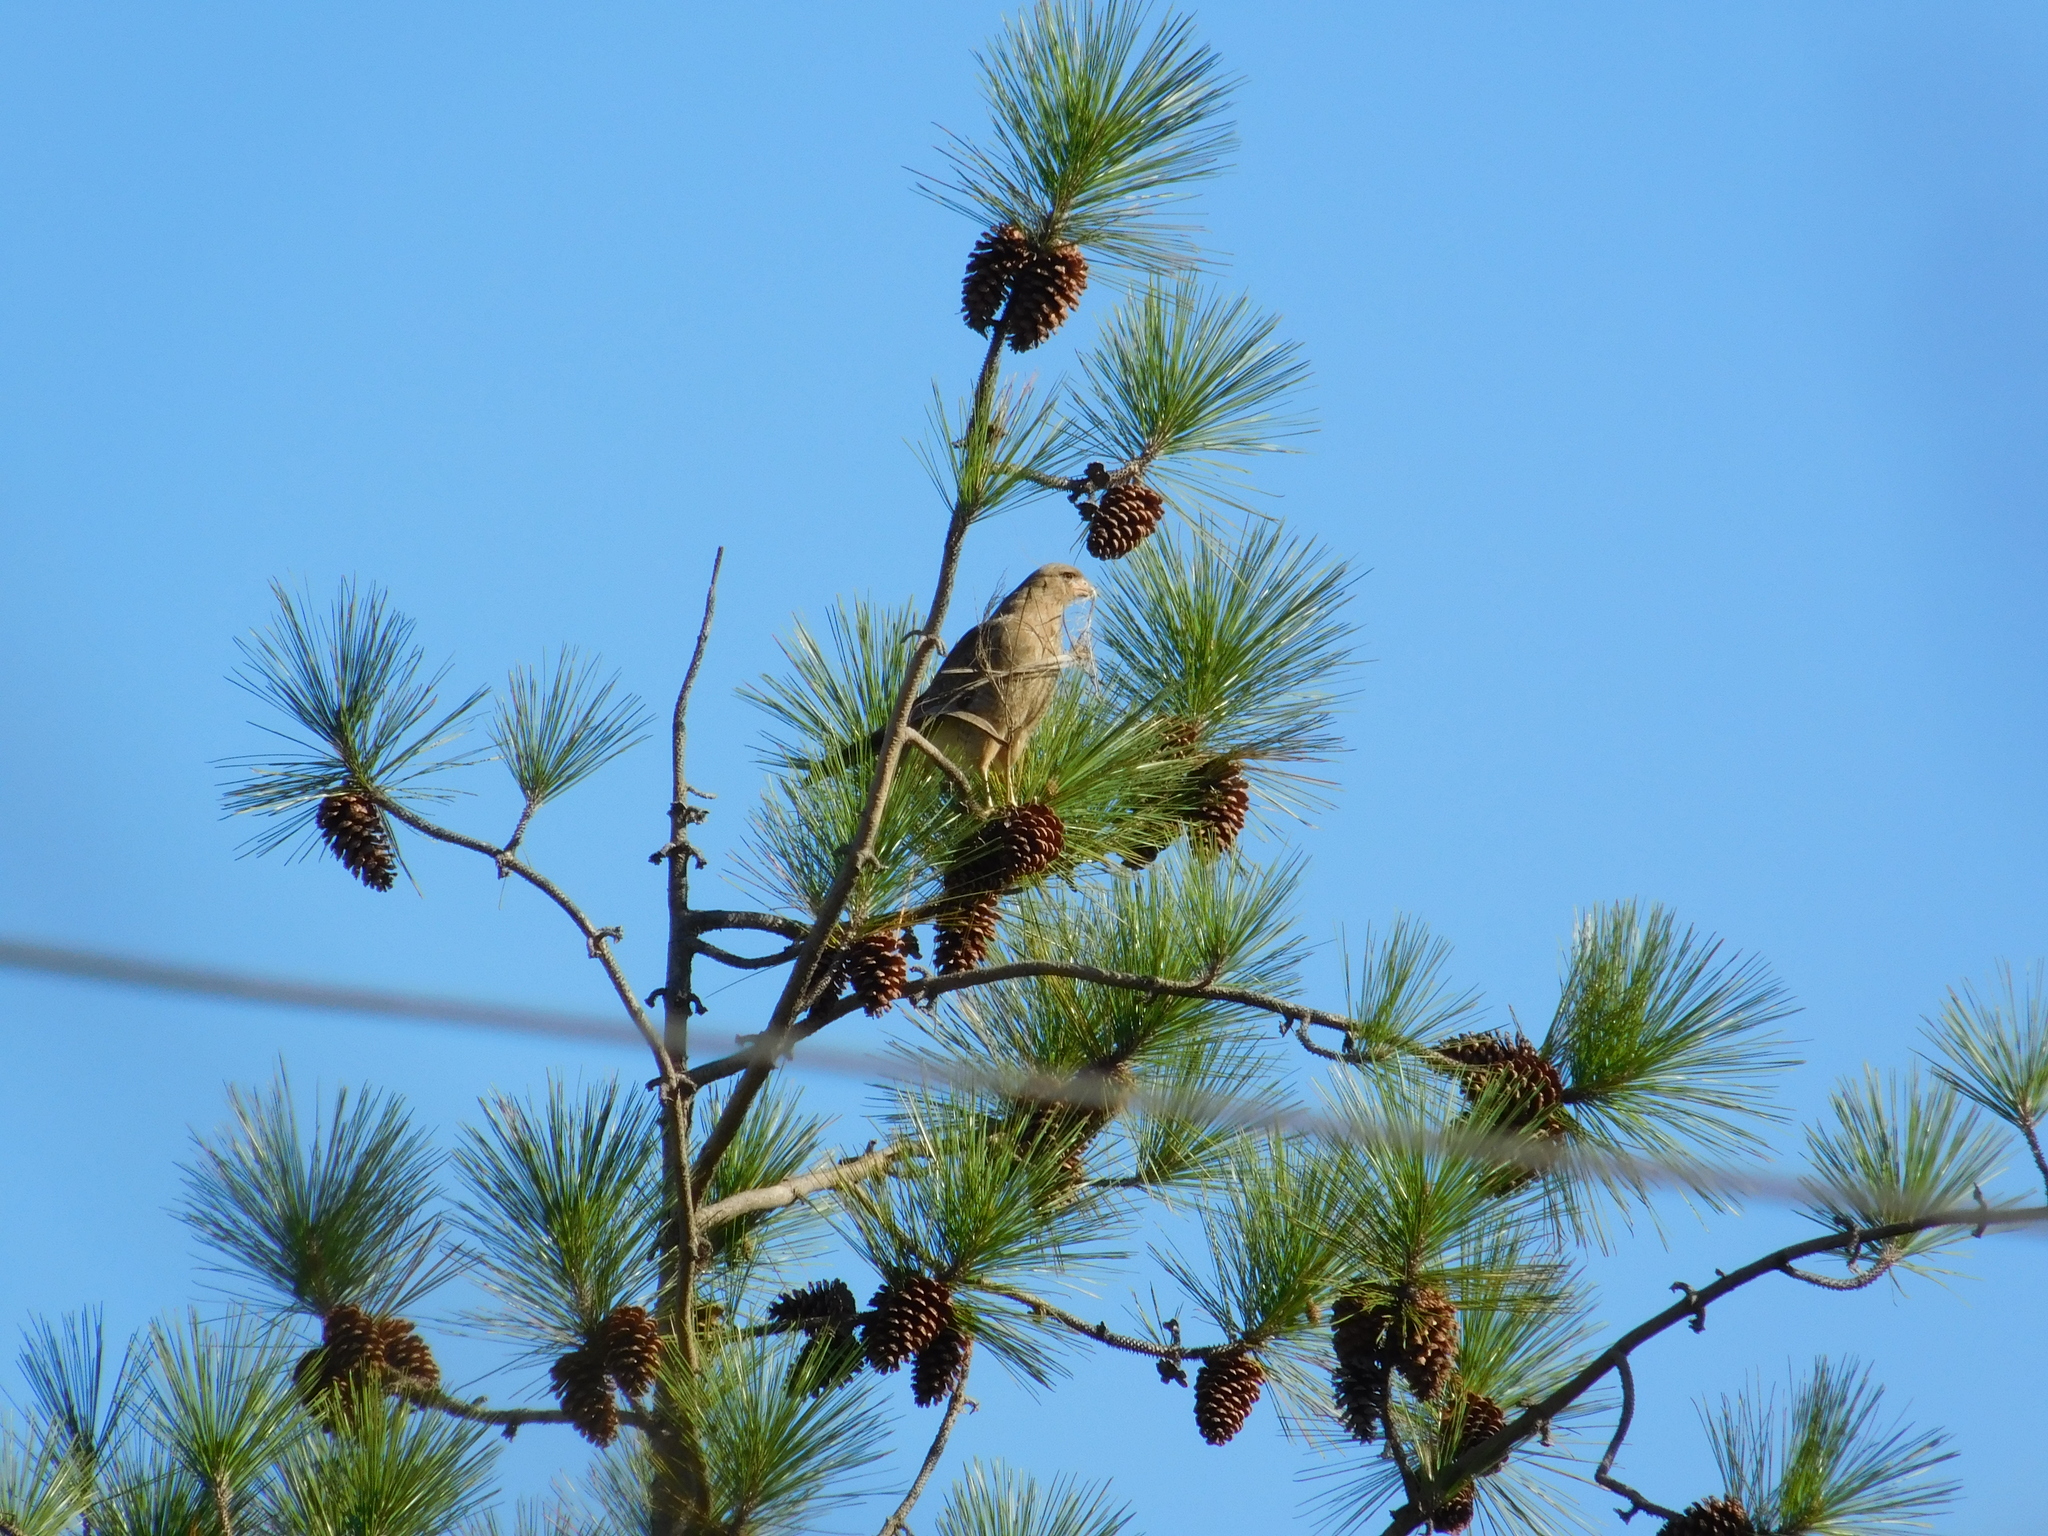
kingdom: Animalia
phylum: Chordata
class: Aves
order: Falconiformes
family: Falconidae
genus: Daptrius
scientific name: Daptrius
